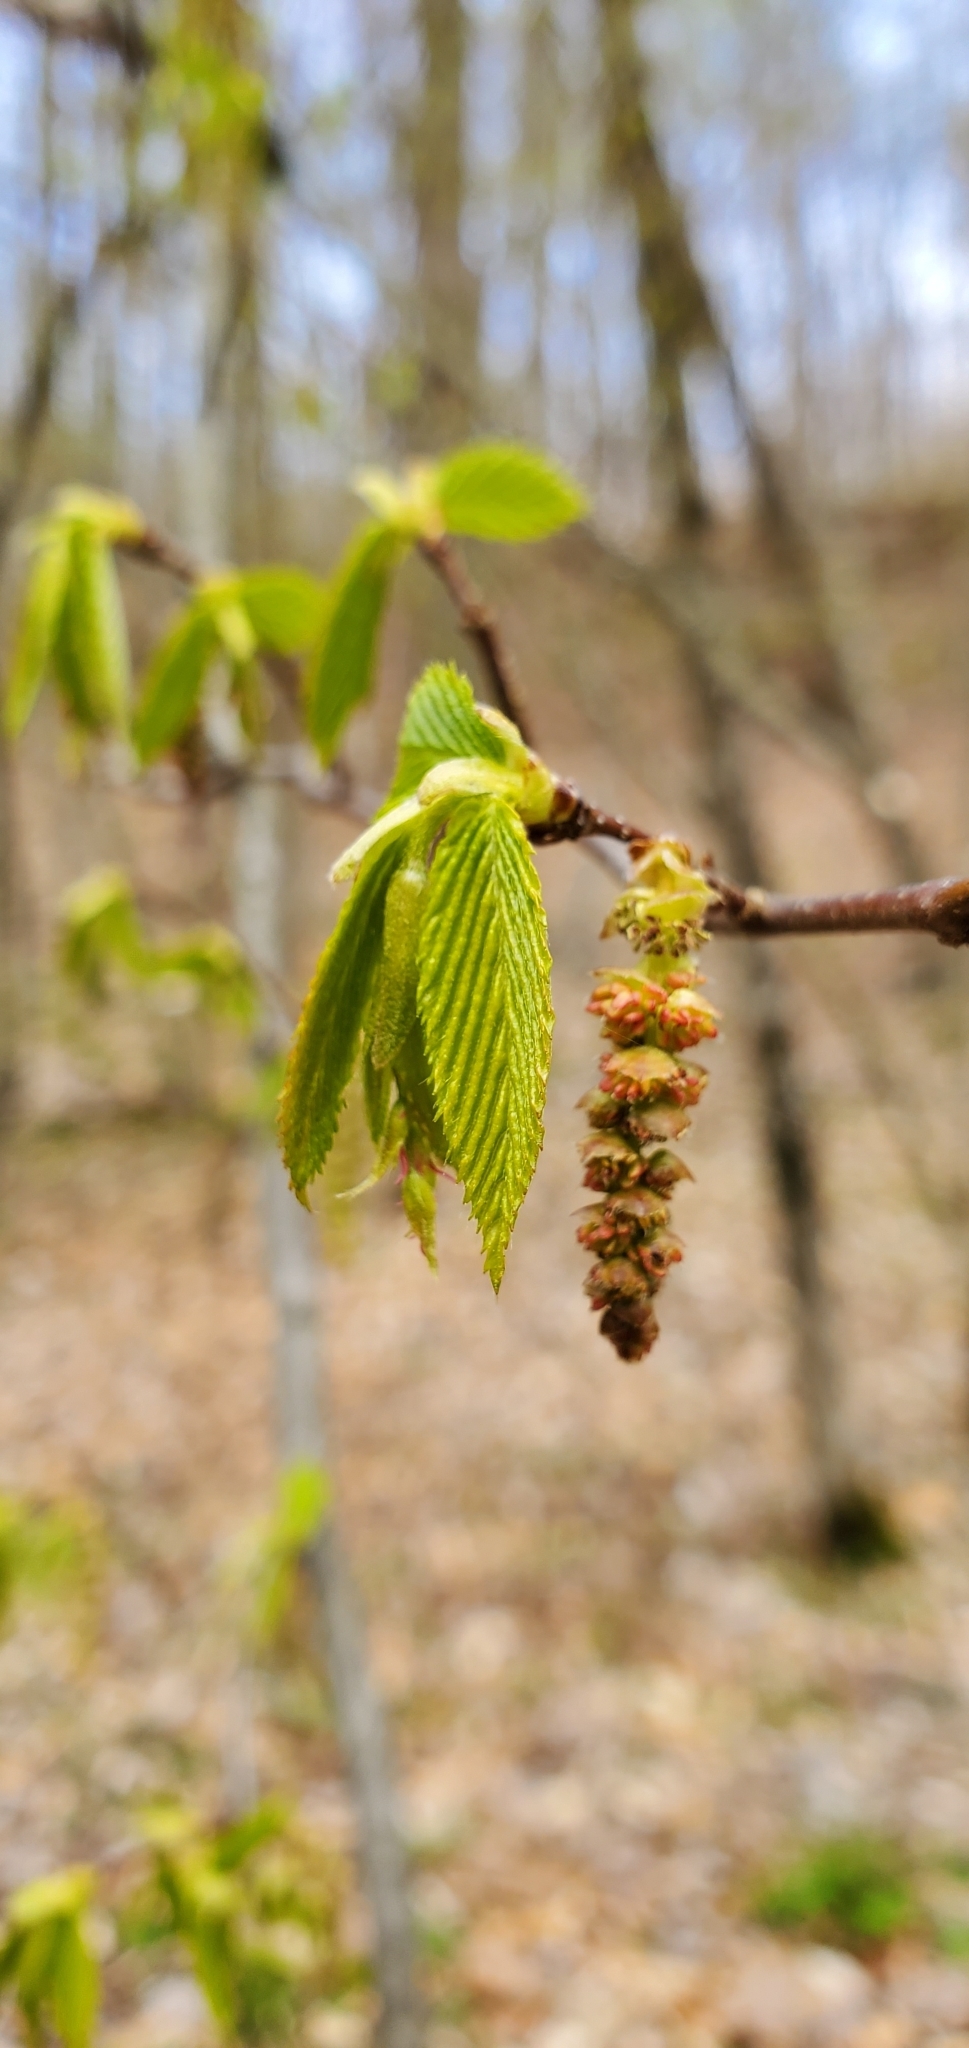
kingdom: Plantae
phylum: Tracheophyta
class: Magnoliopsida
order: Fagales
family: Betulaceae
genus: Ostrya
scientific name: Ostrya virginiana
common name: Ironwood
